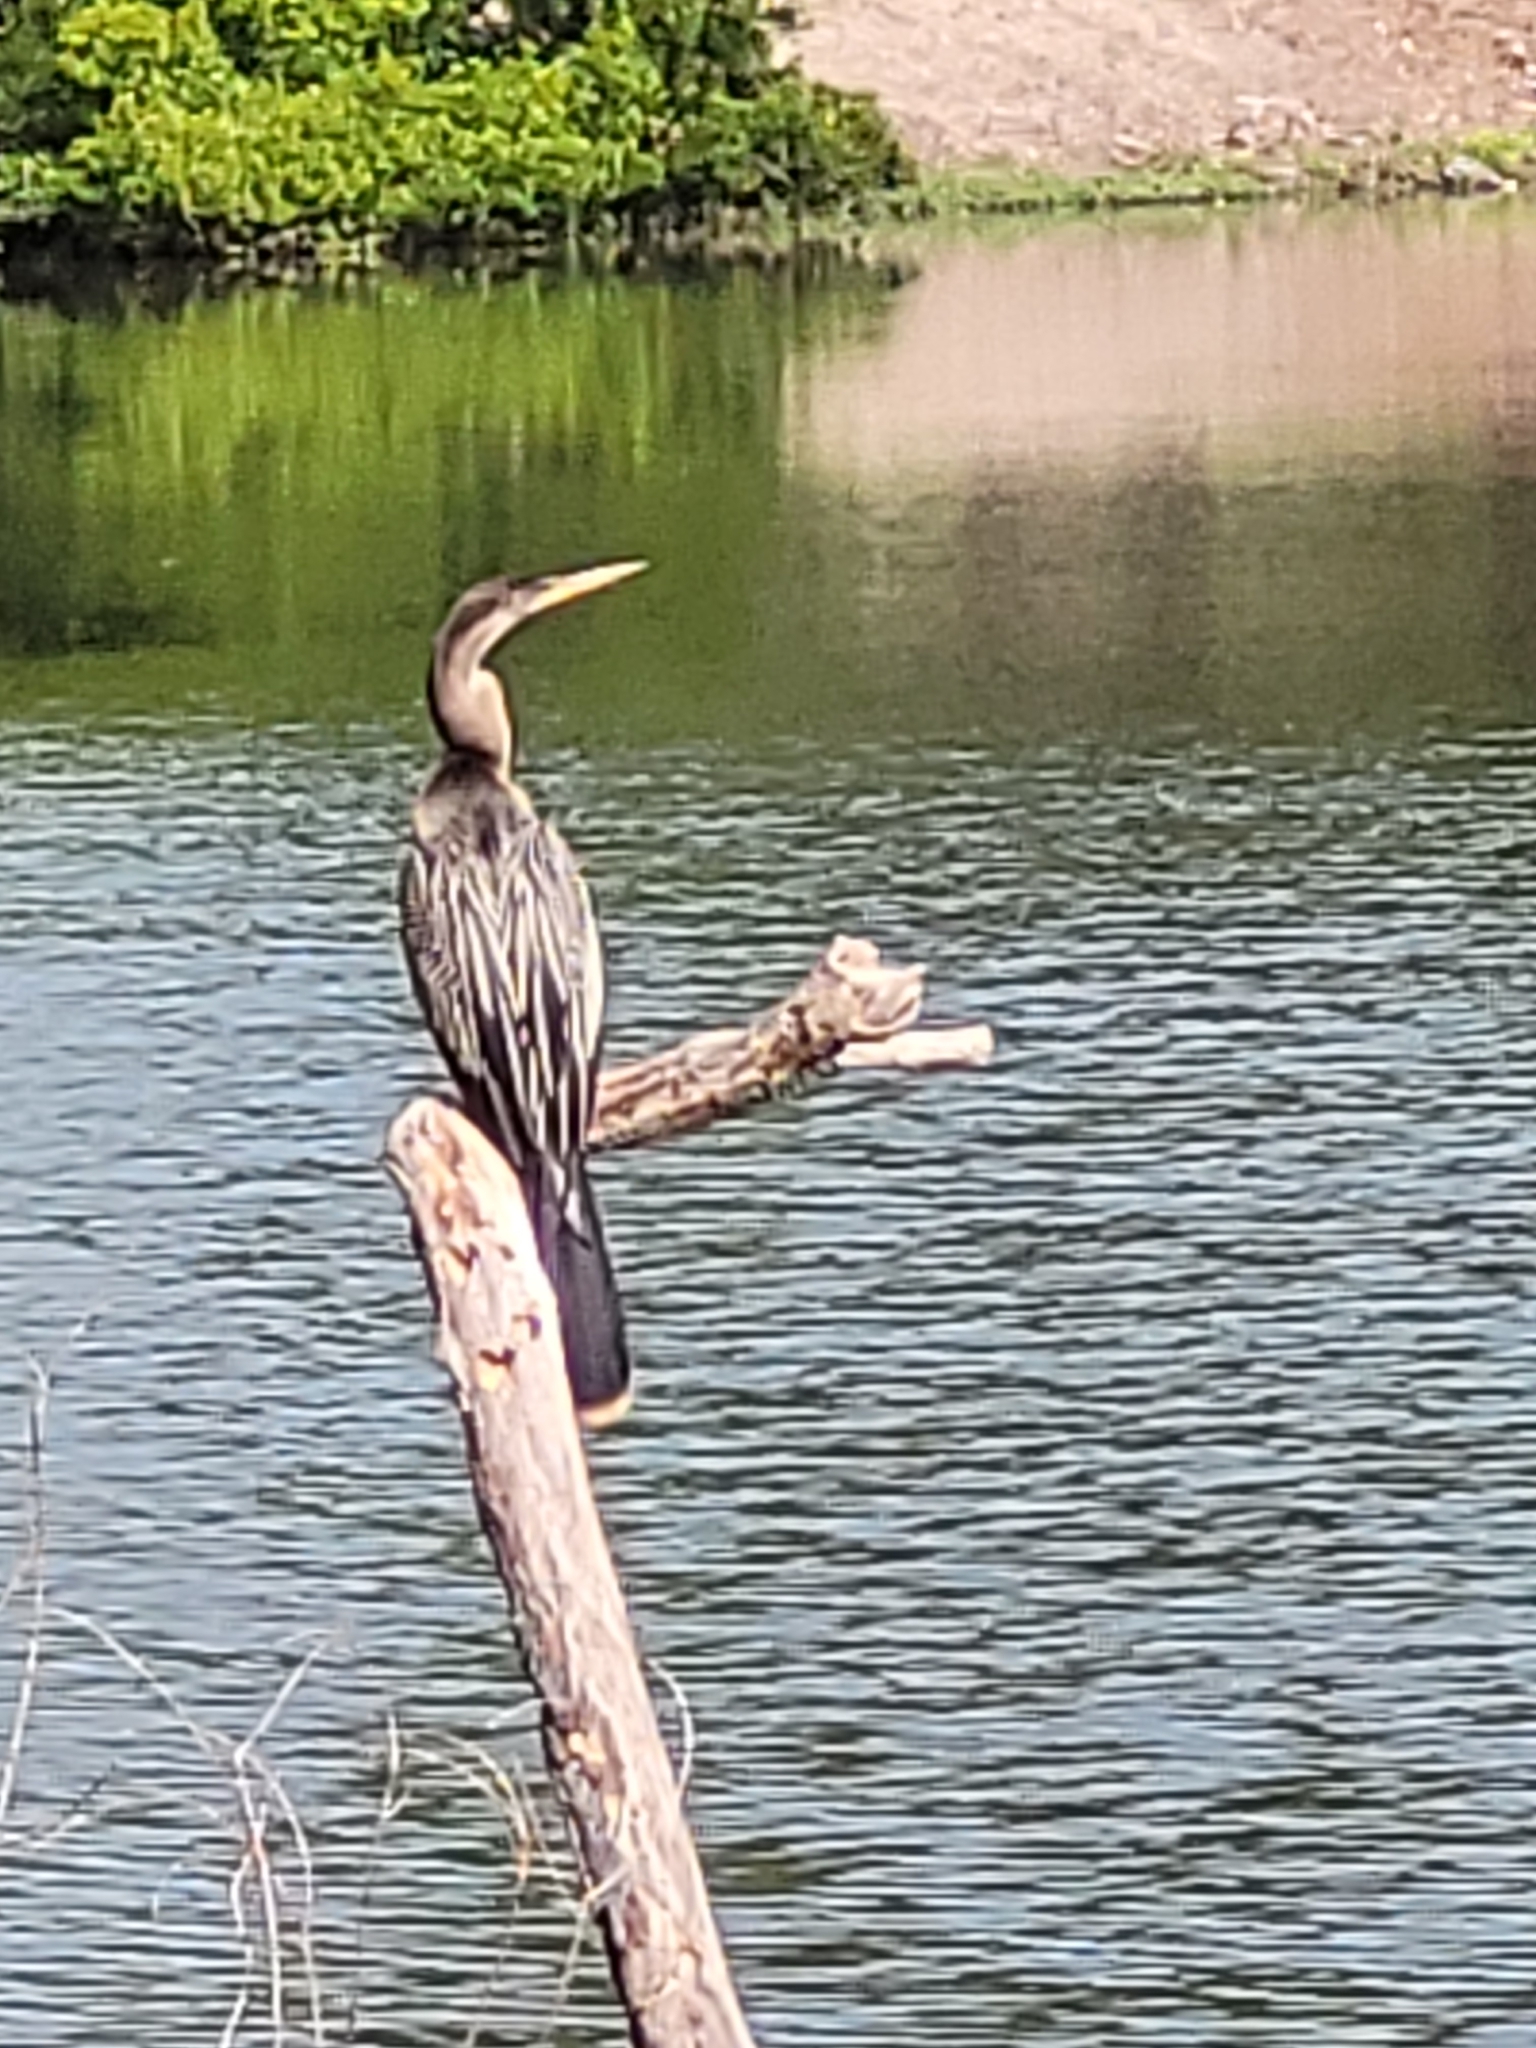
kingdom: Animalia
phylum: Chordata
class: Aves
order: Suliformes
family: Anhingidae
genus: Anhinga
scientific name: Anhinga anhinga
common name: Anhinga
